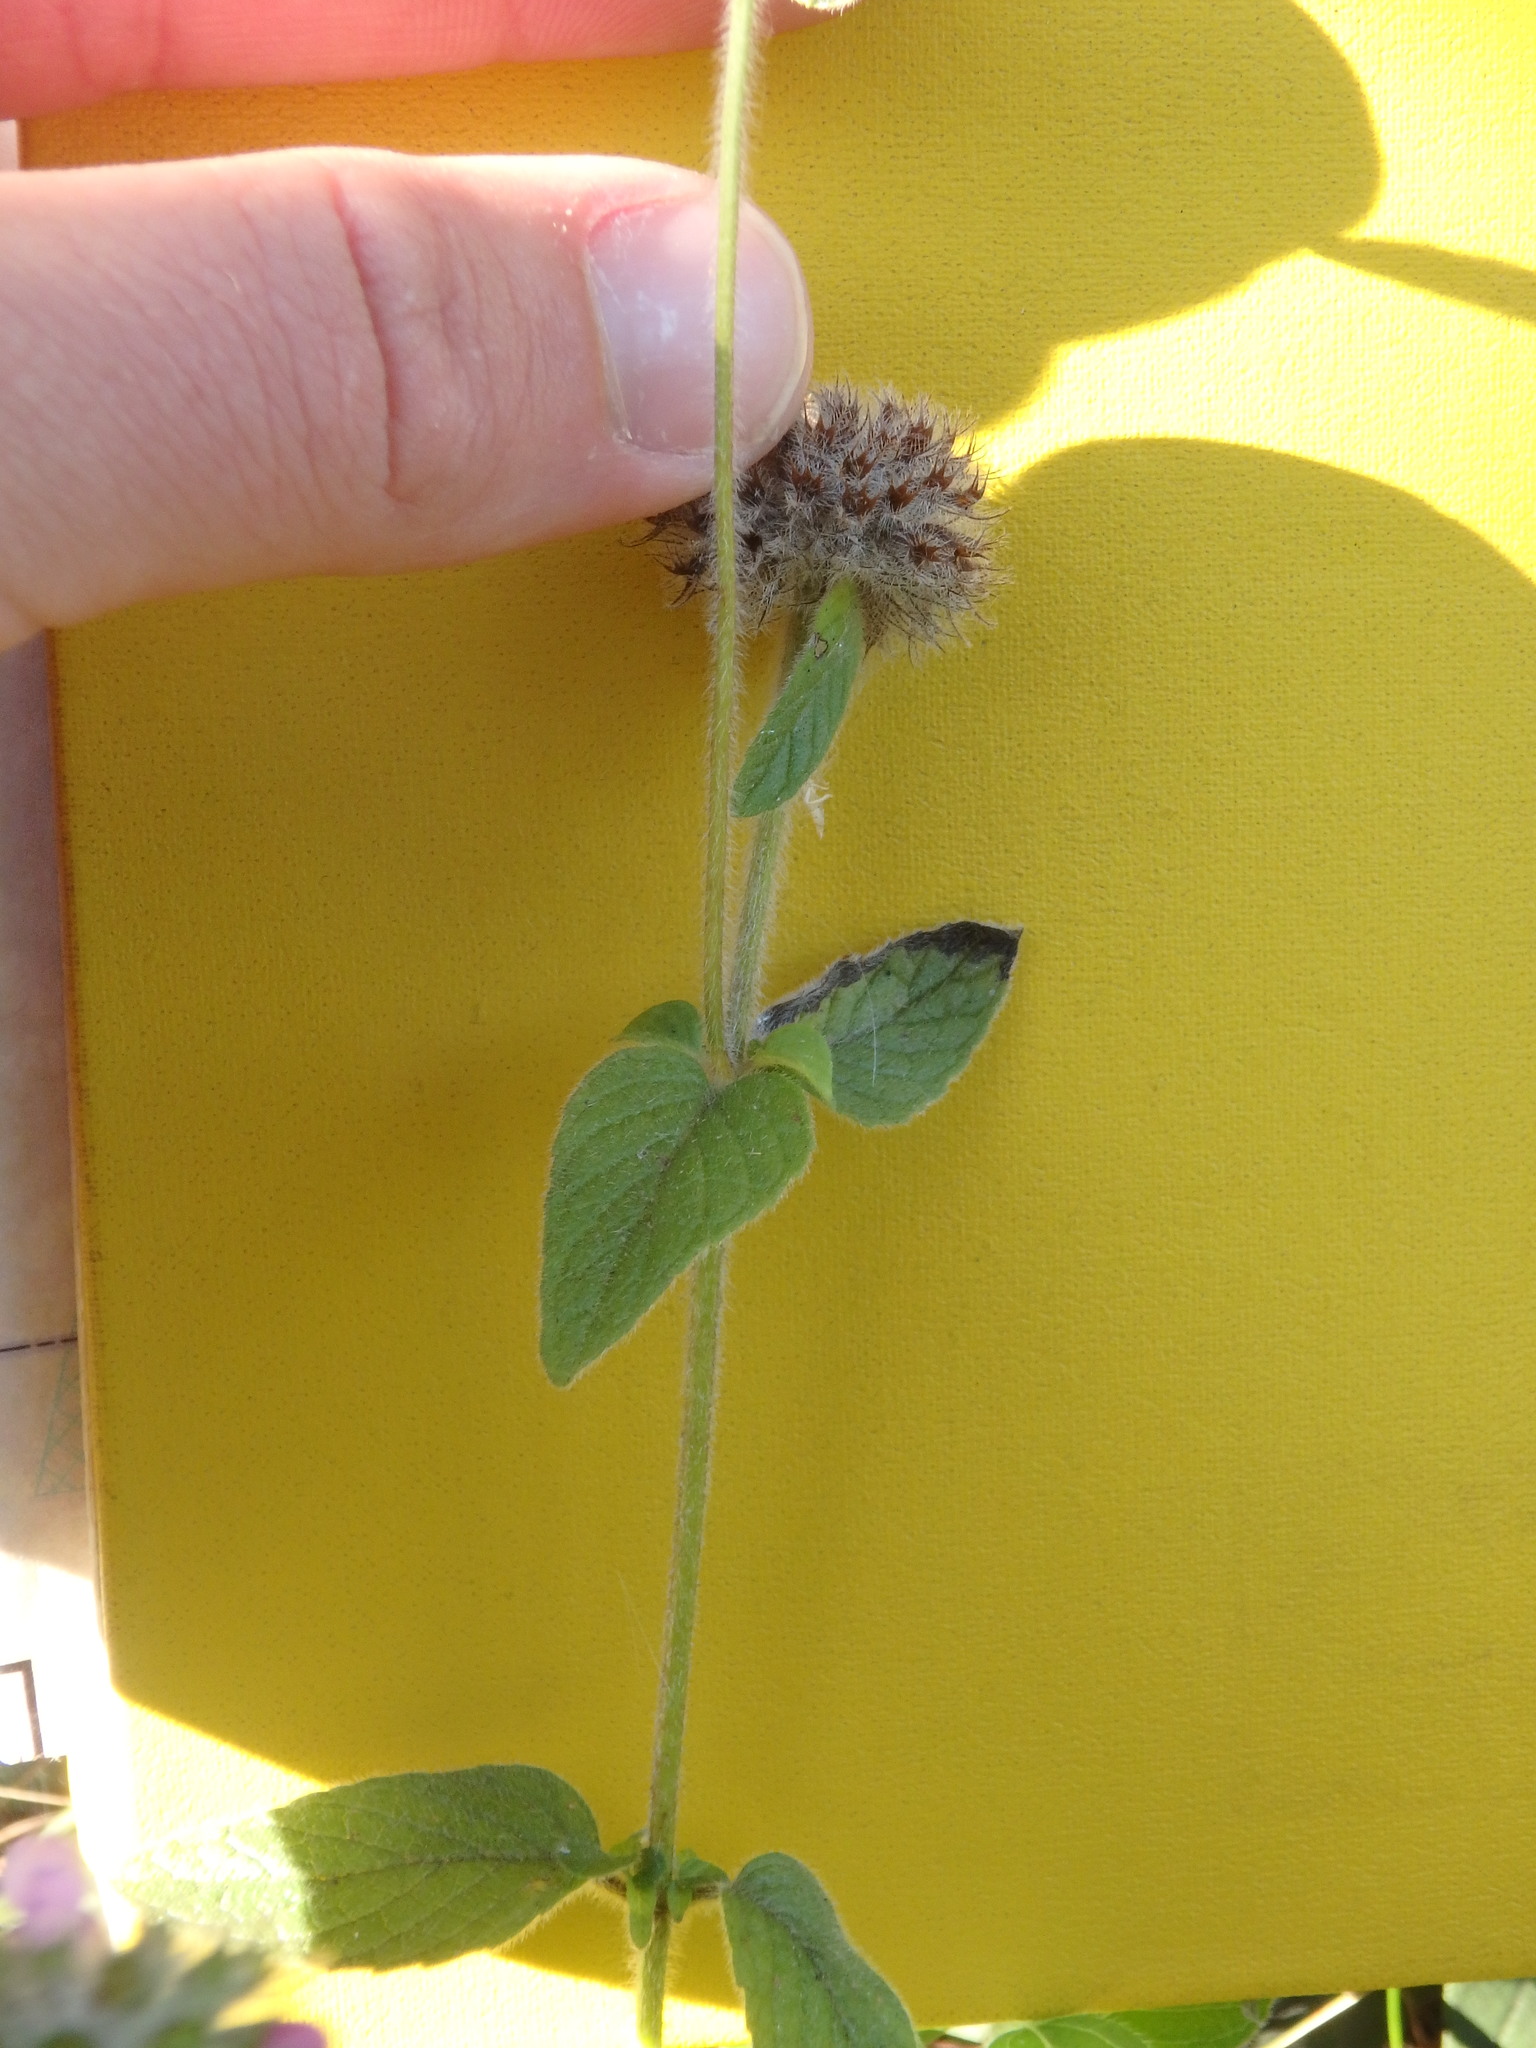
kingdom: Plantae
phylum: Tracheophyta
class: Magnoliopsida
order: Lamiales
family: Lamiaceae
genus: Clinopodium
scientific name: Clinopodium vulgare
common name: Wild basil
